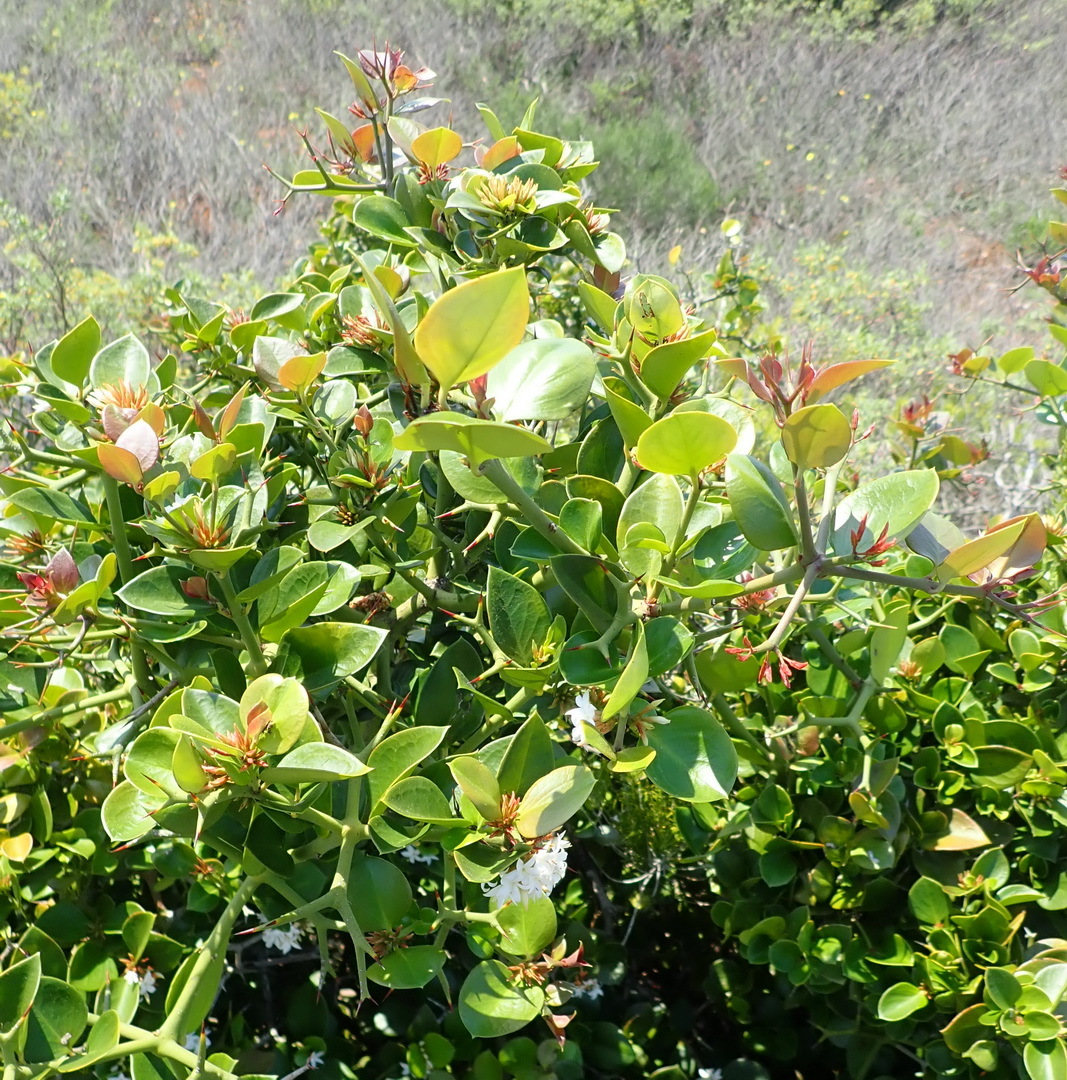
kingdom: Plantae
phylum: Tracheophyta
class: Magnoliopsida
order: Gentianales
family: Apocynaceae
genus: Carissa
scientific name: Carissa bispinosa
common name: Forest num-num
